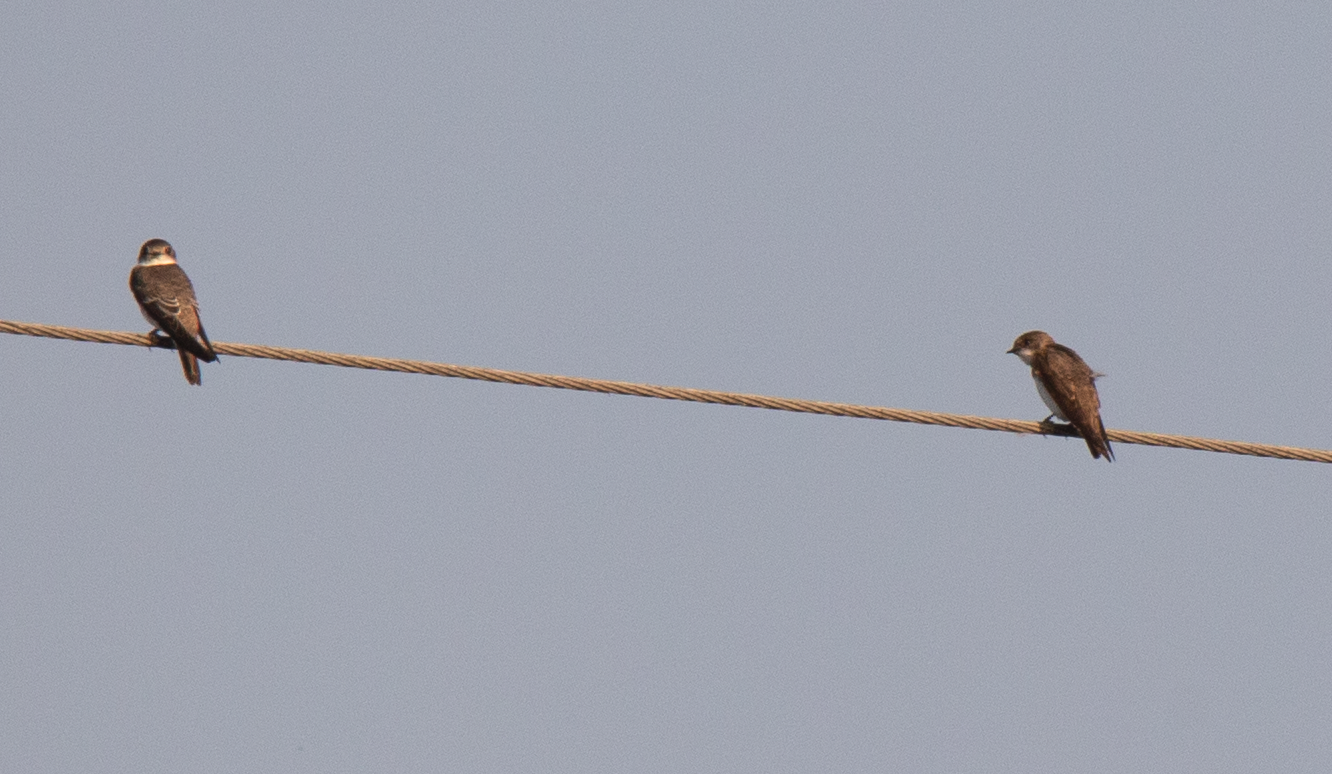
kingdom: Animalia
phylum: Chordata
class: Aves
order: Passeriformes
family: Hirundinidae
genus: Riparia
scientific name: Riparia riparia
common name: Sand martin
